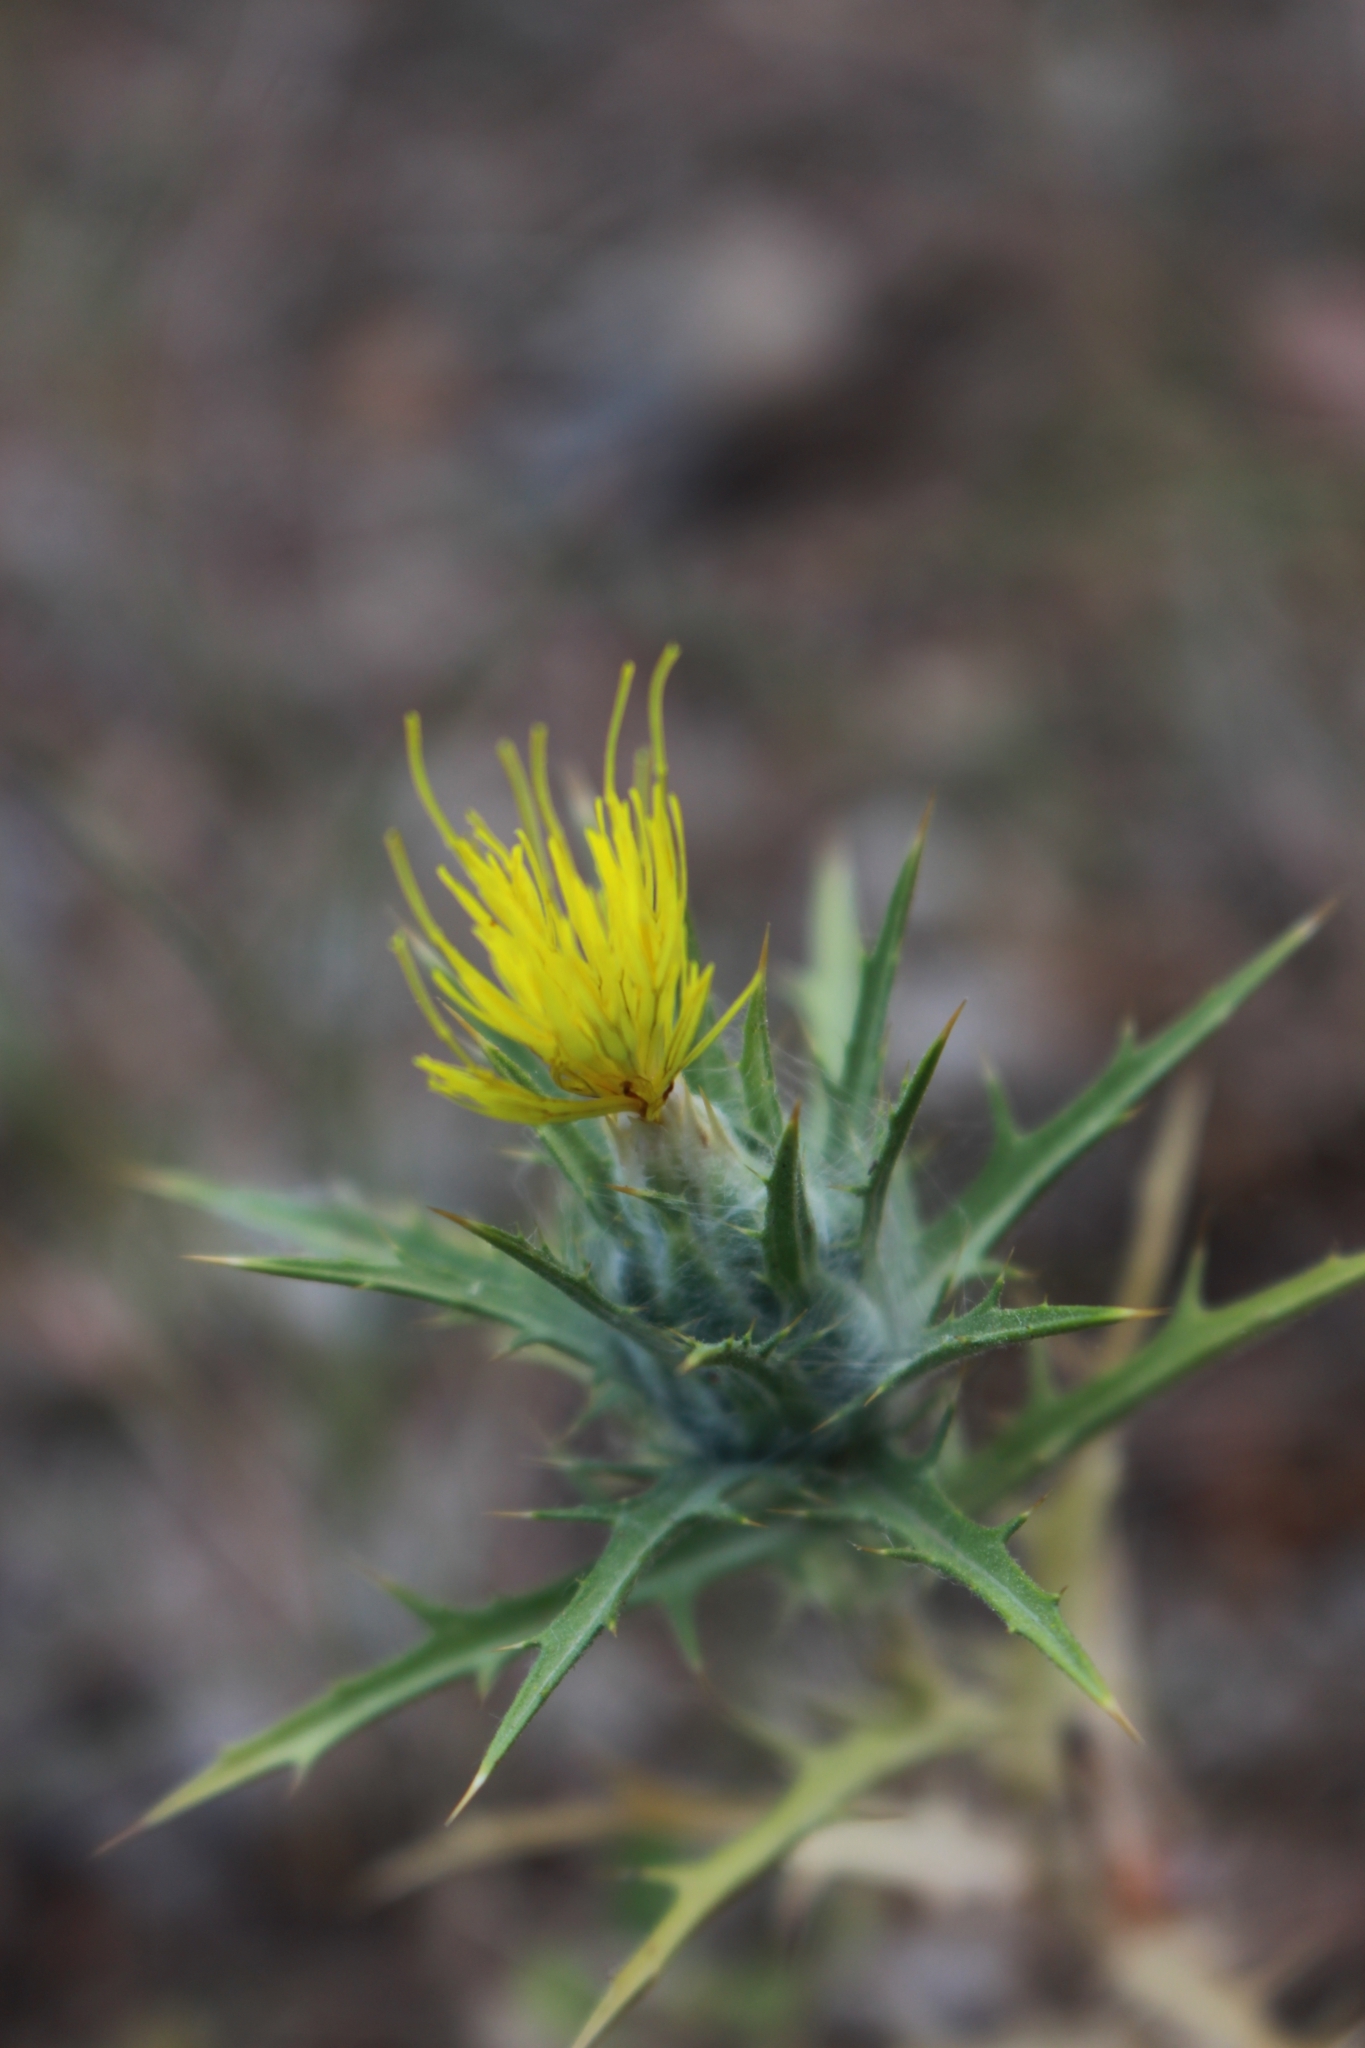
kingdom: Plantae
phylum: Tracheophyta
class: Magnoliopsida
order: Asterales
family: Asteraceae
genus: Carthamus
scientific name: Carthamus lanatus
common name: Downy safflower
